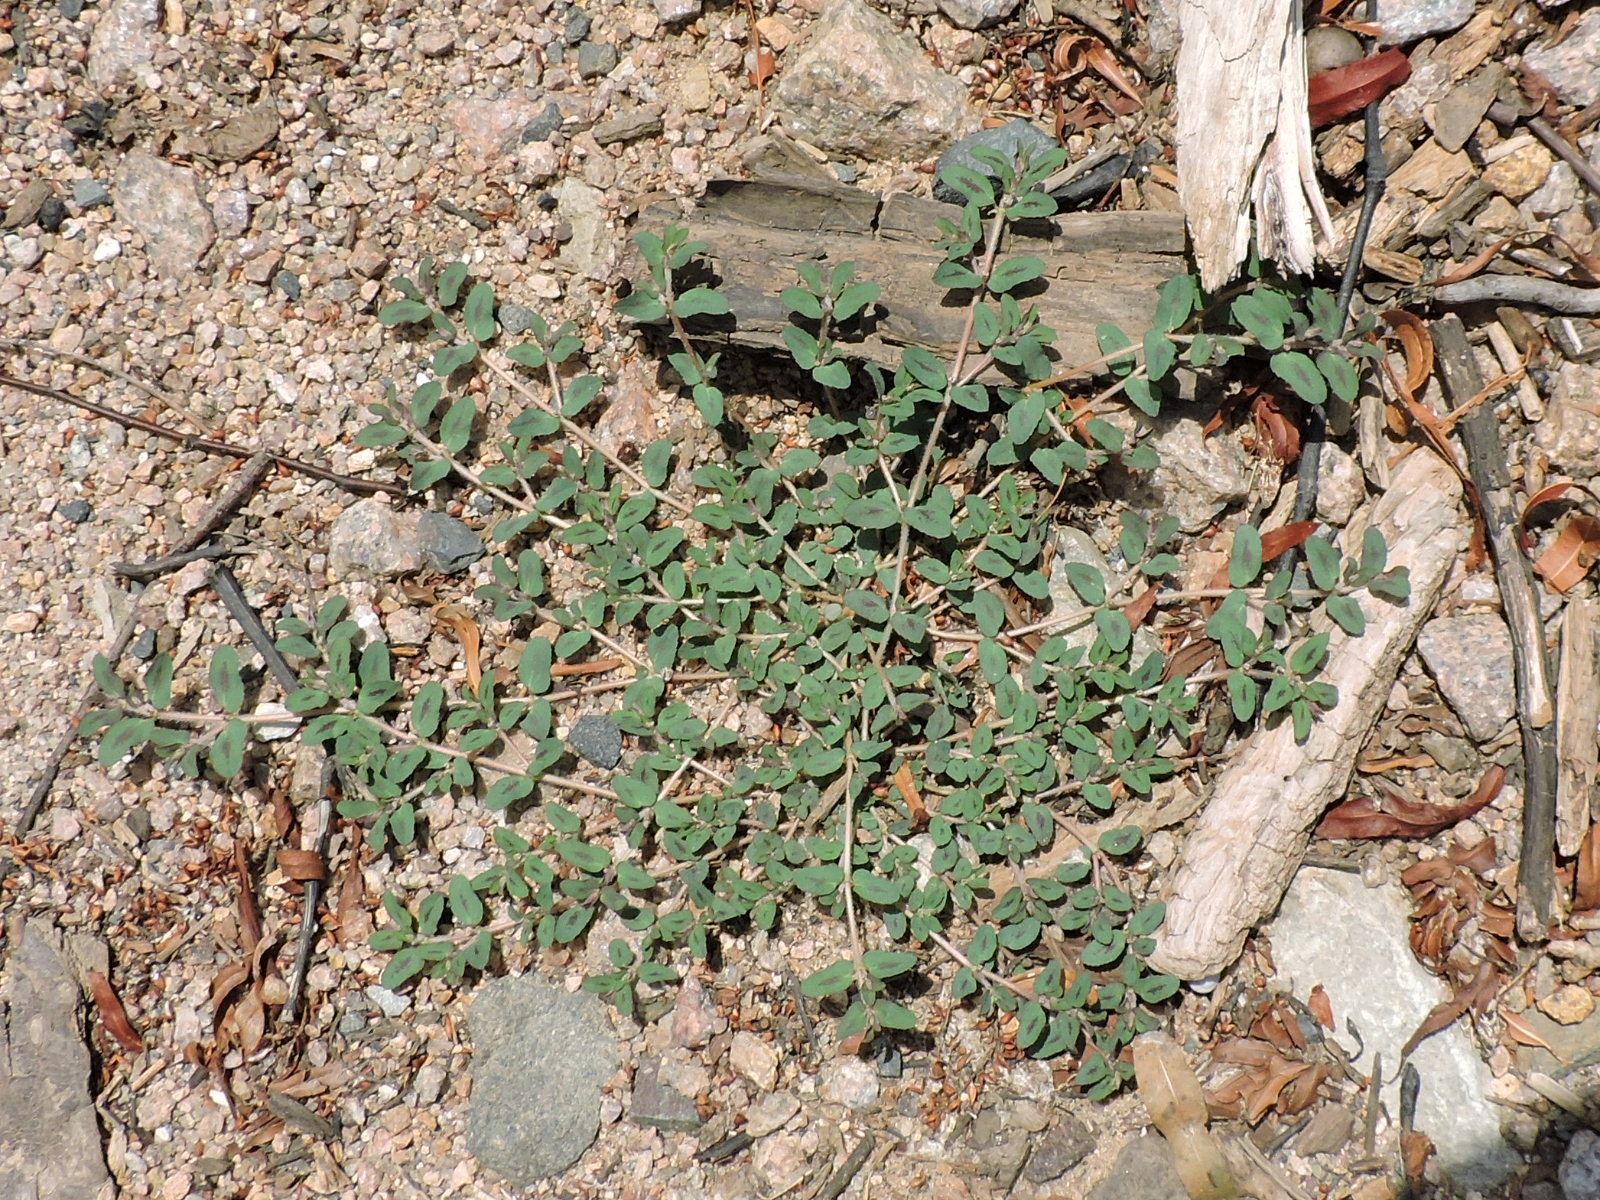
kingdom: Plantae
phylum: Tracheophyta
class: Magnoliopsida
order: Malpighiales
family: Euphorbiaceae
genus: Euphorbia
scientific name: Euphorbia maculata
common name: Spotted spurge
